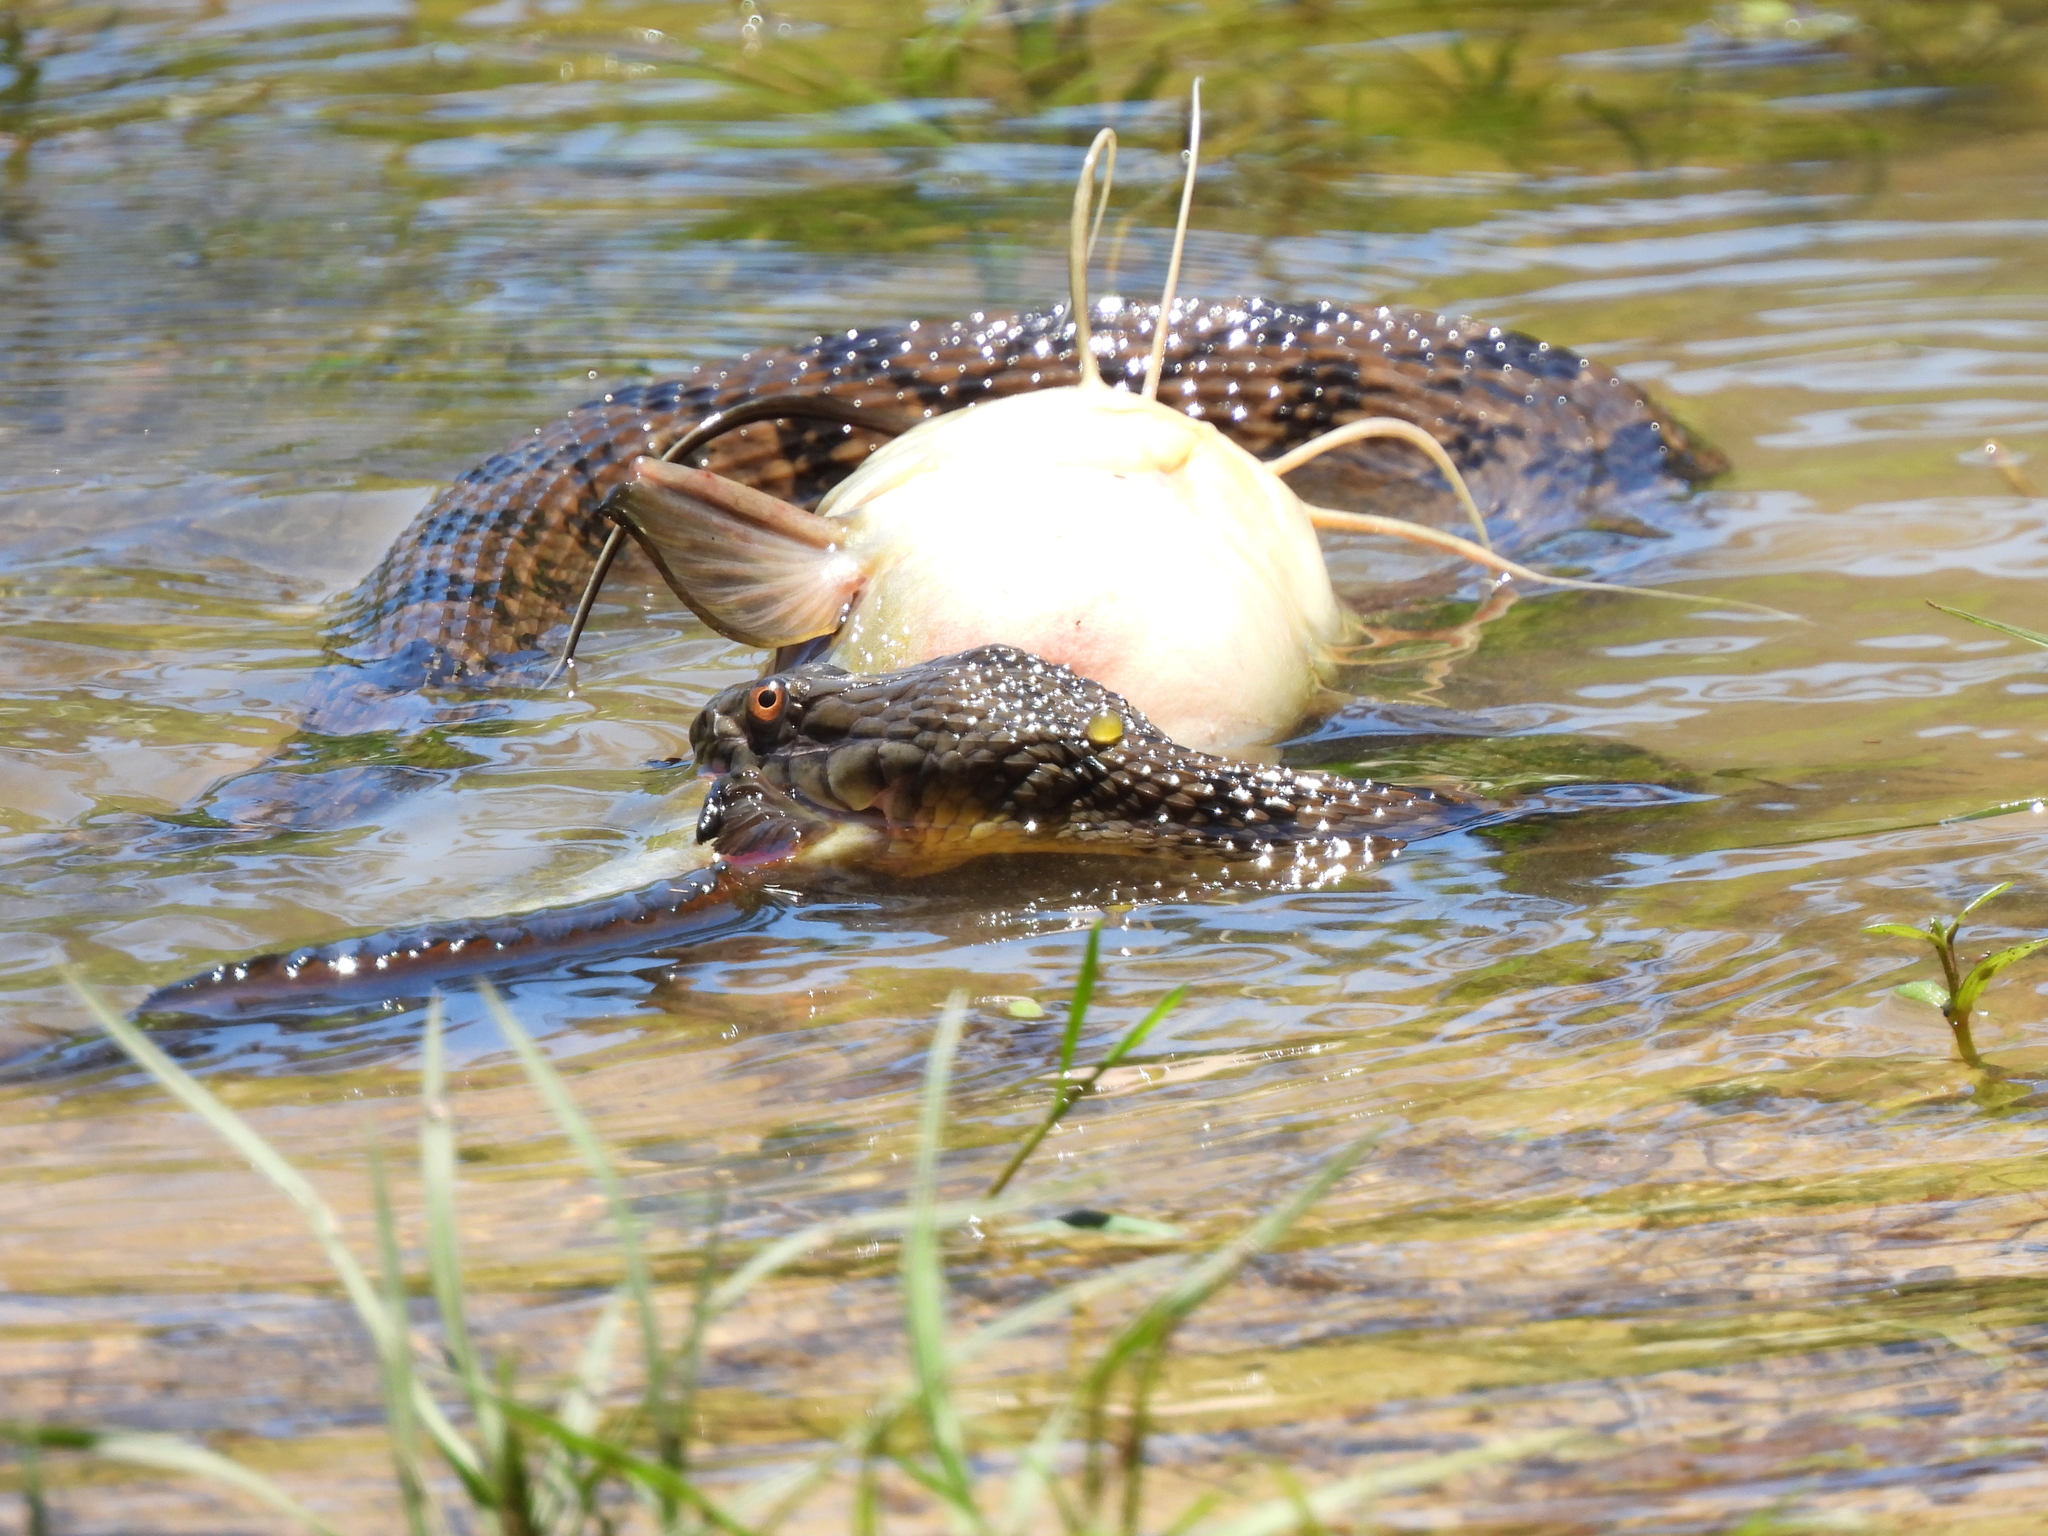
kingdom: Animalia
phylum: Chordata
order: Siluriformes
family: Ictaluridae
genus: Ameiurus
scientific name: Ameiurus natalis
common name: Yellow bullhead
